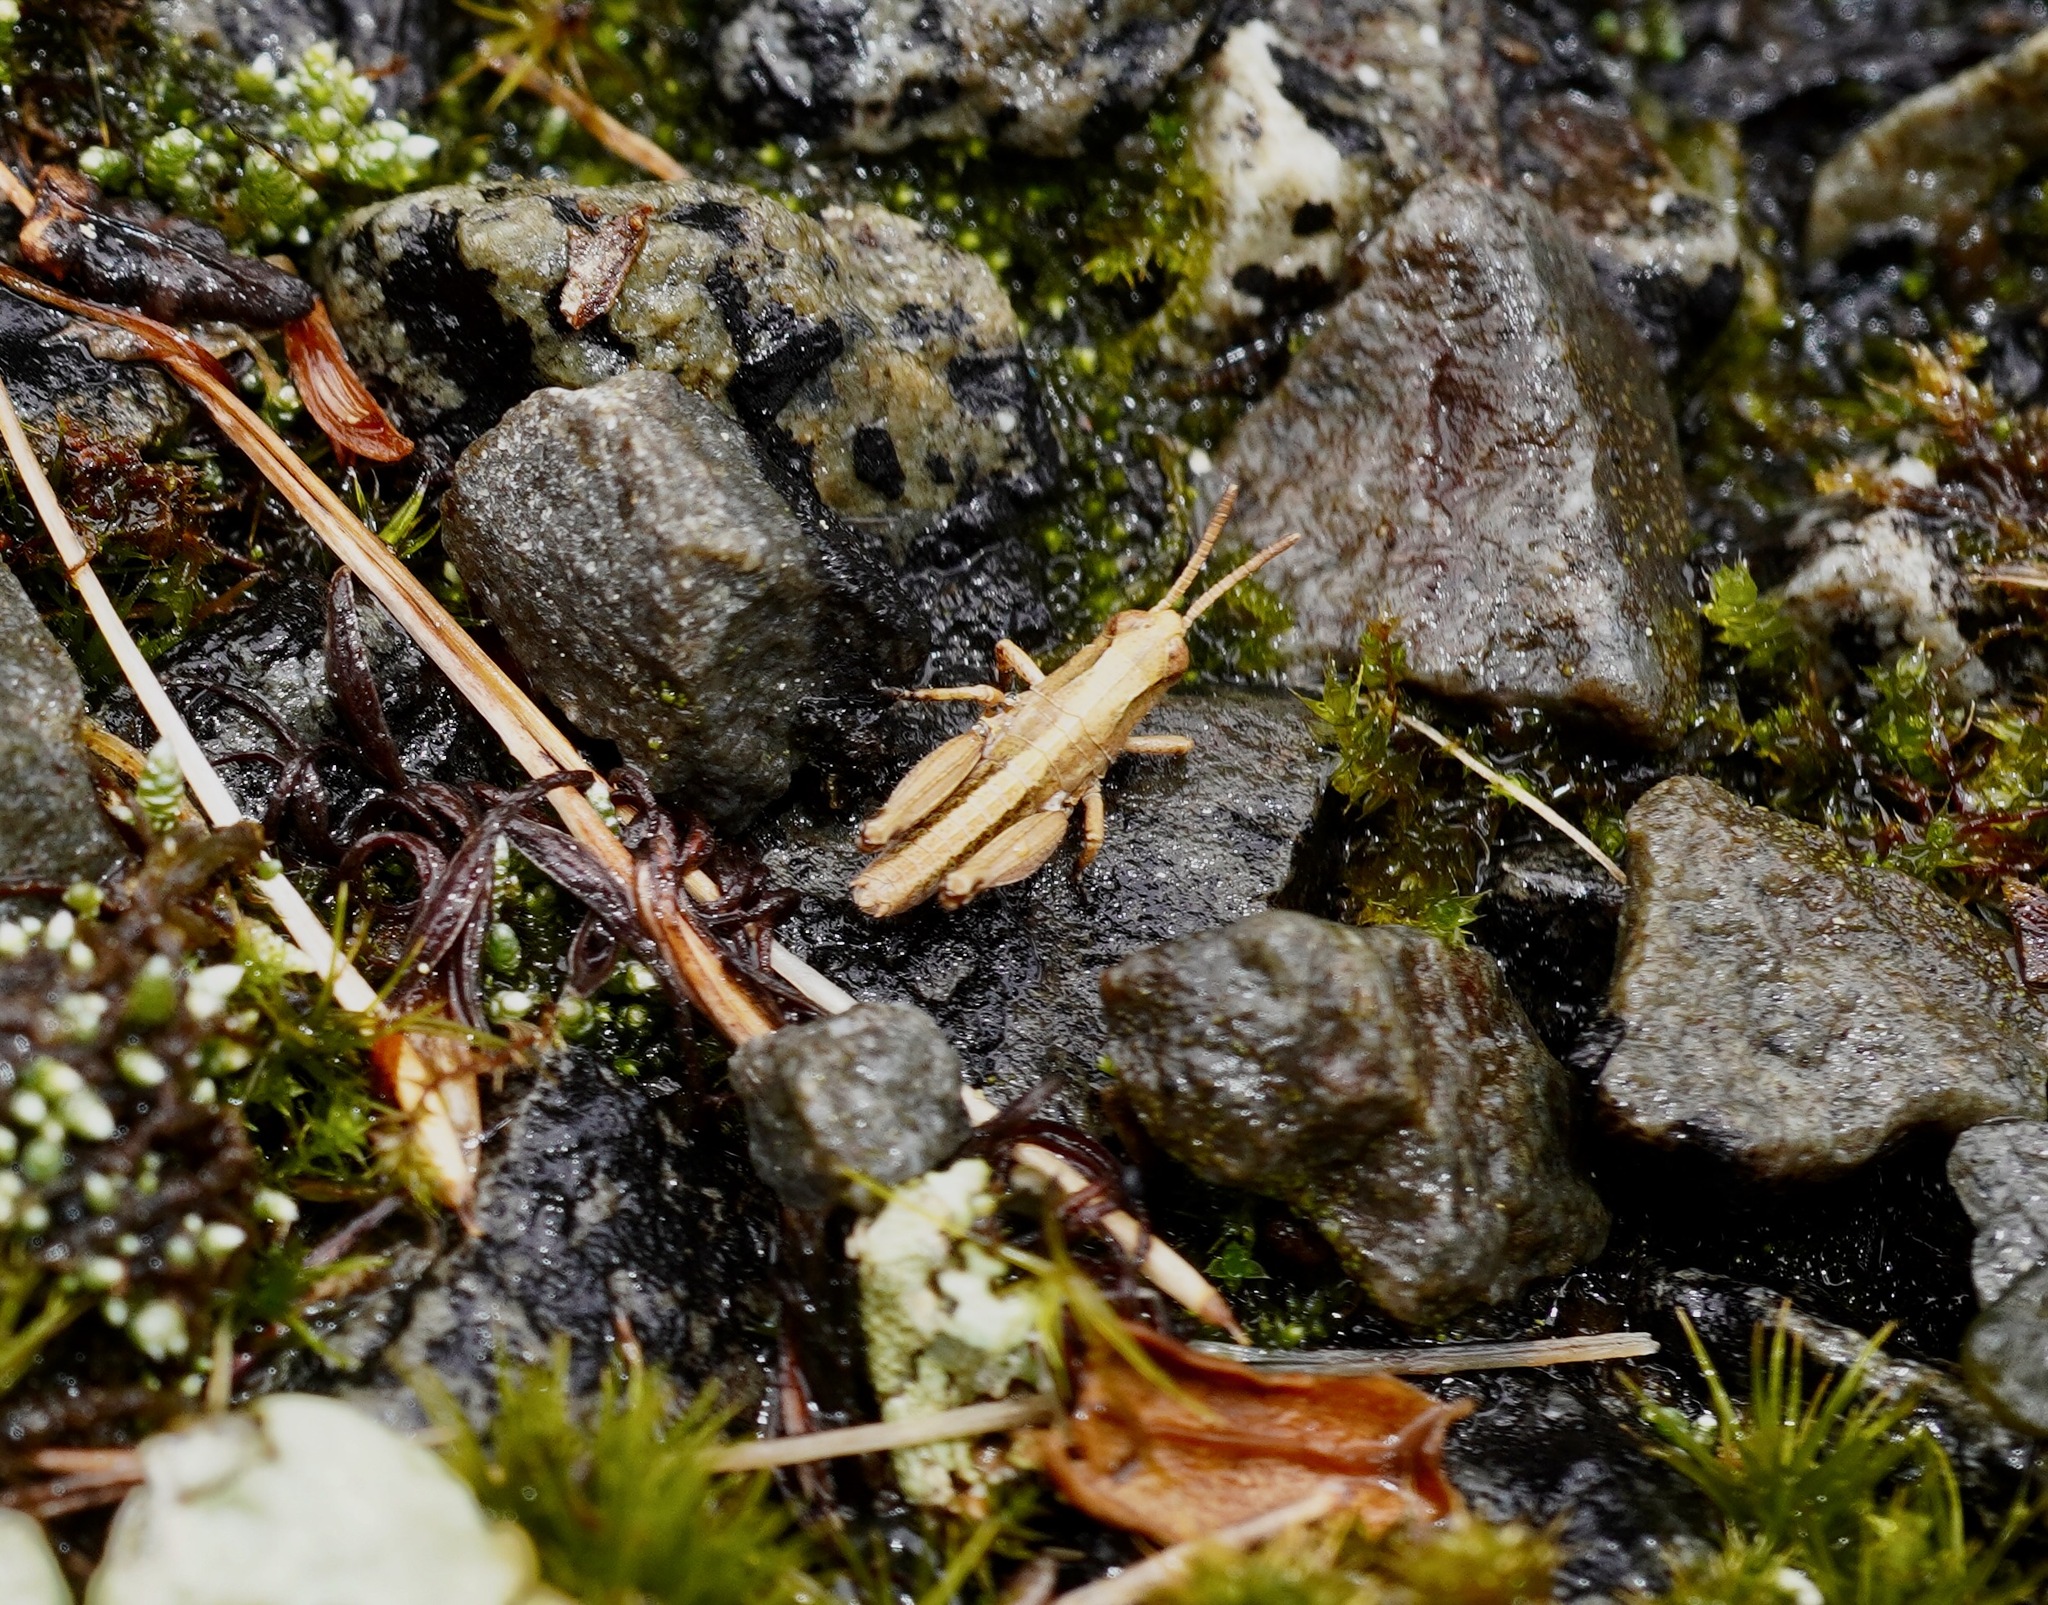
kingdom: Animalia
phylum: Arthropoda
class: Insecta
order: Orthoptera
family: Acrididae
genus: Phaulacridium
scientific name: Phaulacridium marginale
